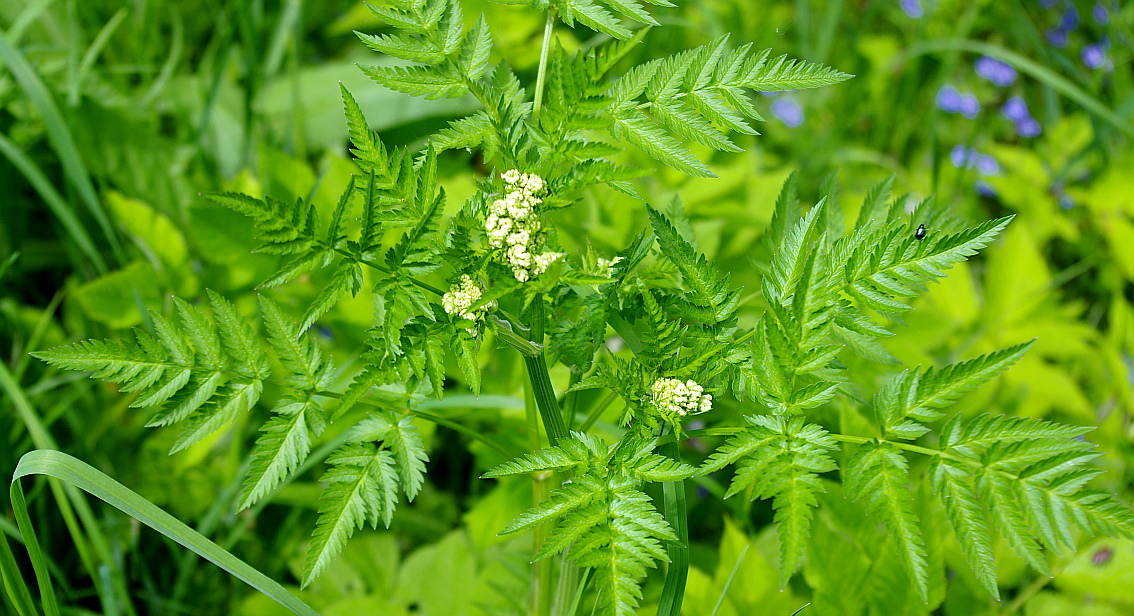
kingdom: Plantae
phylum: Tracheophyta
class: Magnoliopsida
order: Apiales
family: Apiaceae
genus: Anthriscus
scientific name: Anthriscus sylvestris
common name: Cow parsley
